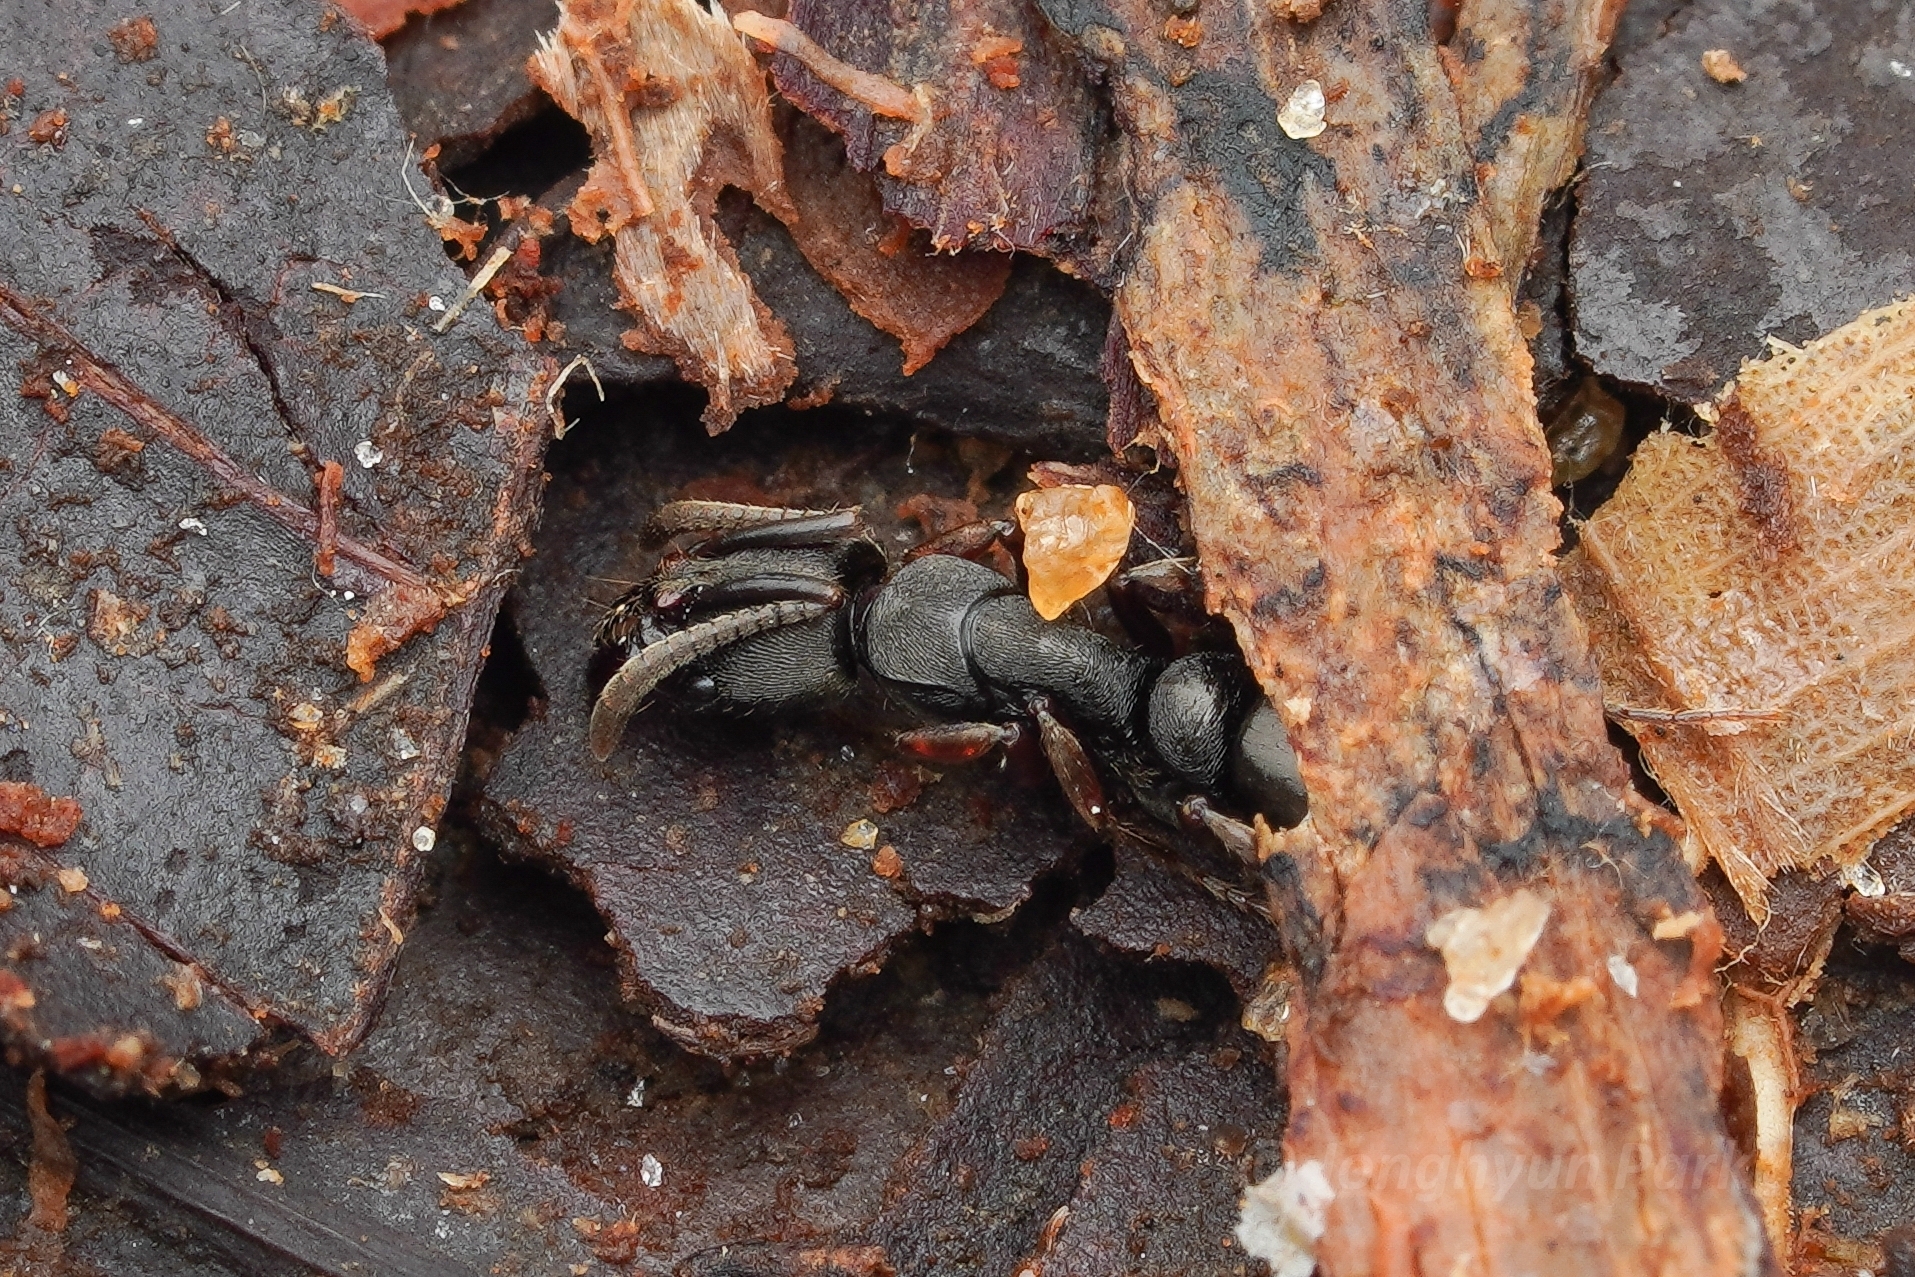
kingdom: Animalia
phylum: Arthropoda
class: Insecta
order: Hymenoptera
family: Formicidae
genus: Pachycondyla
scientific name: Pachycondyla striata
